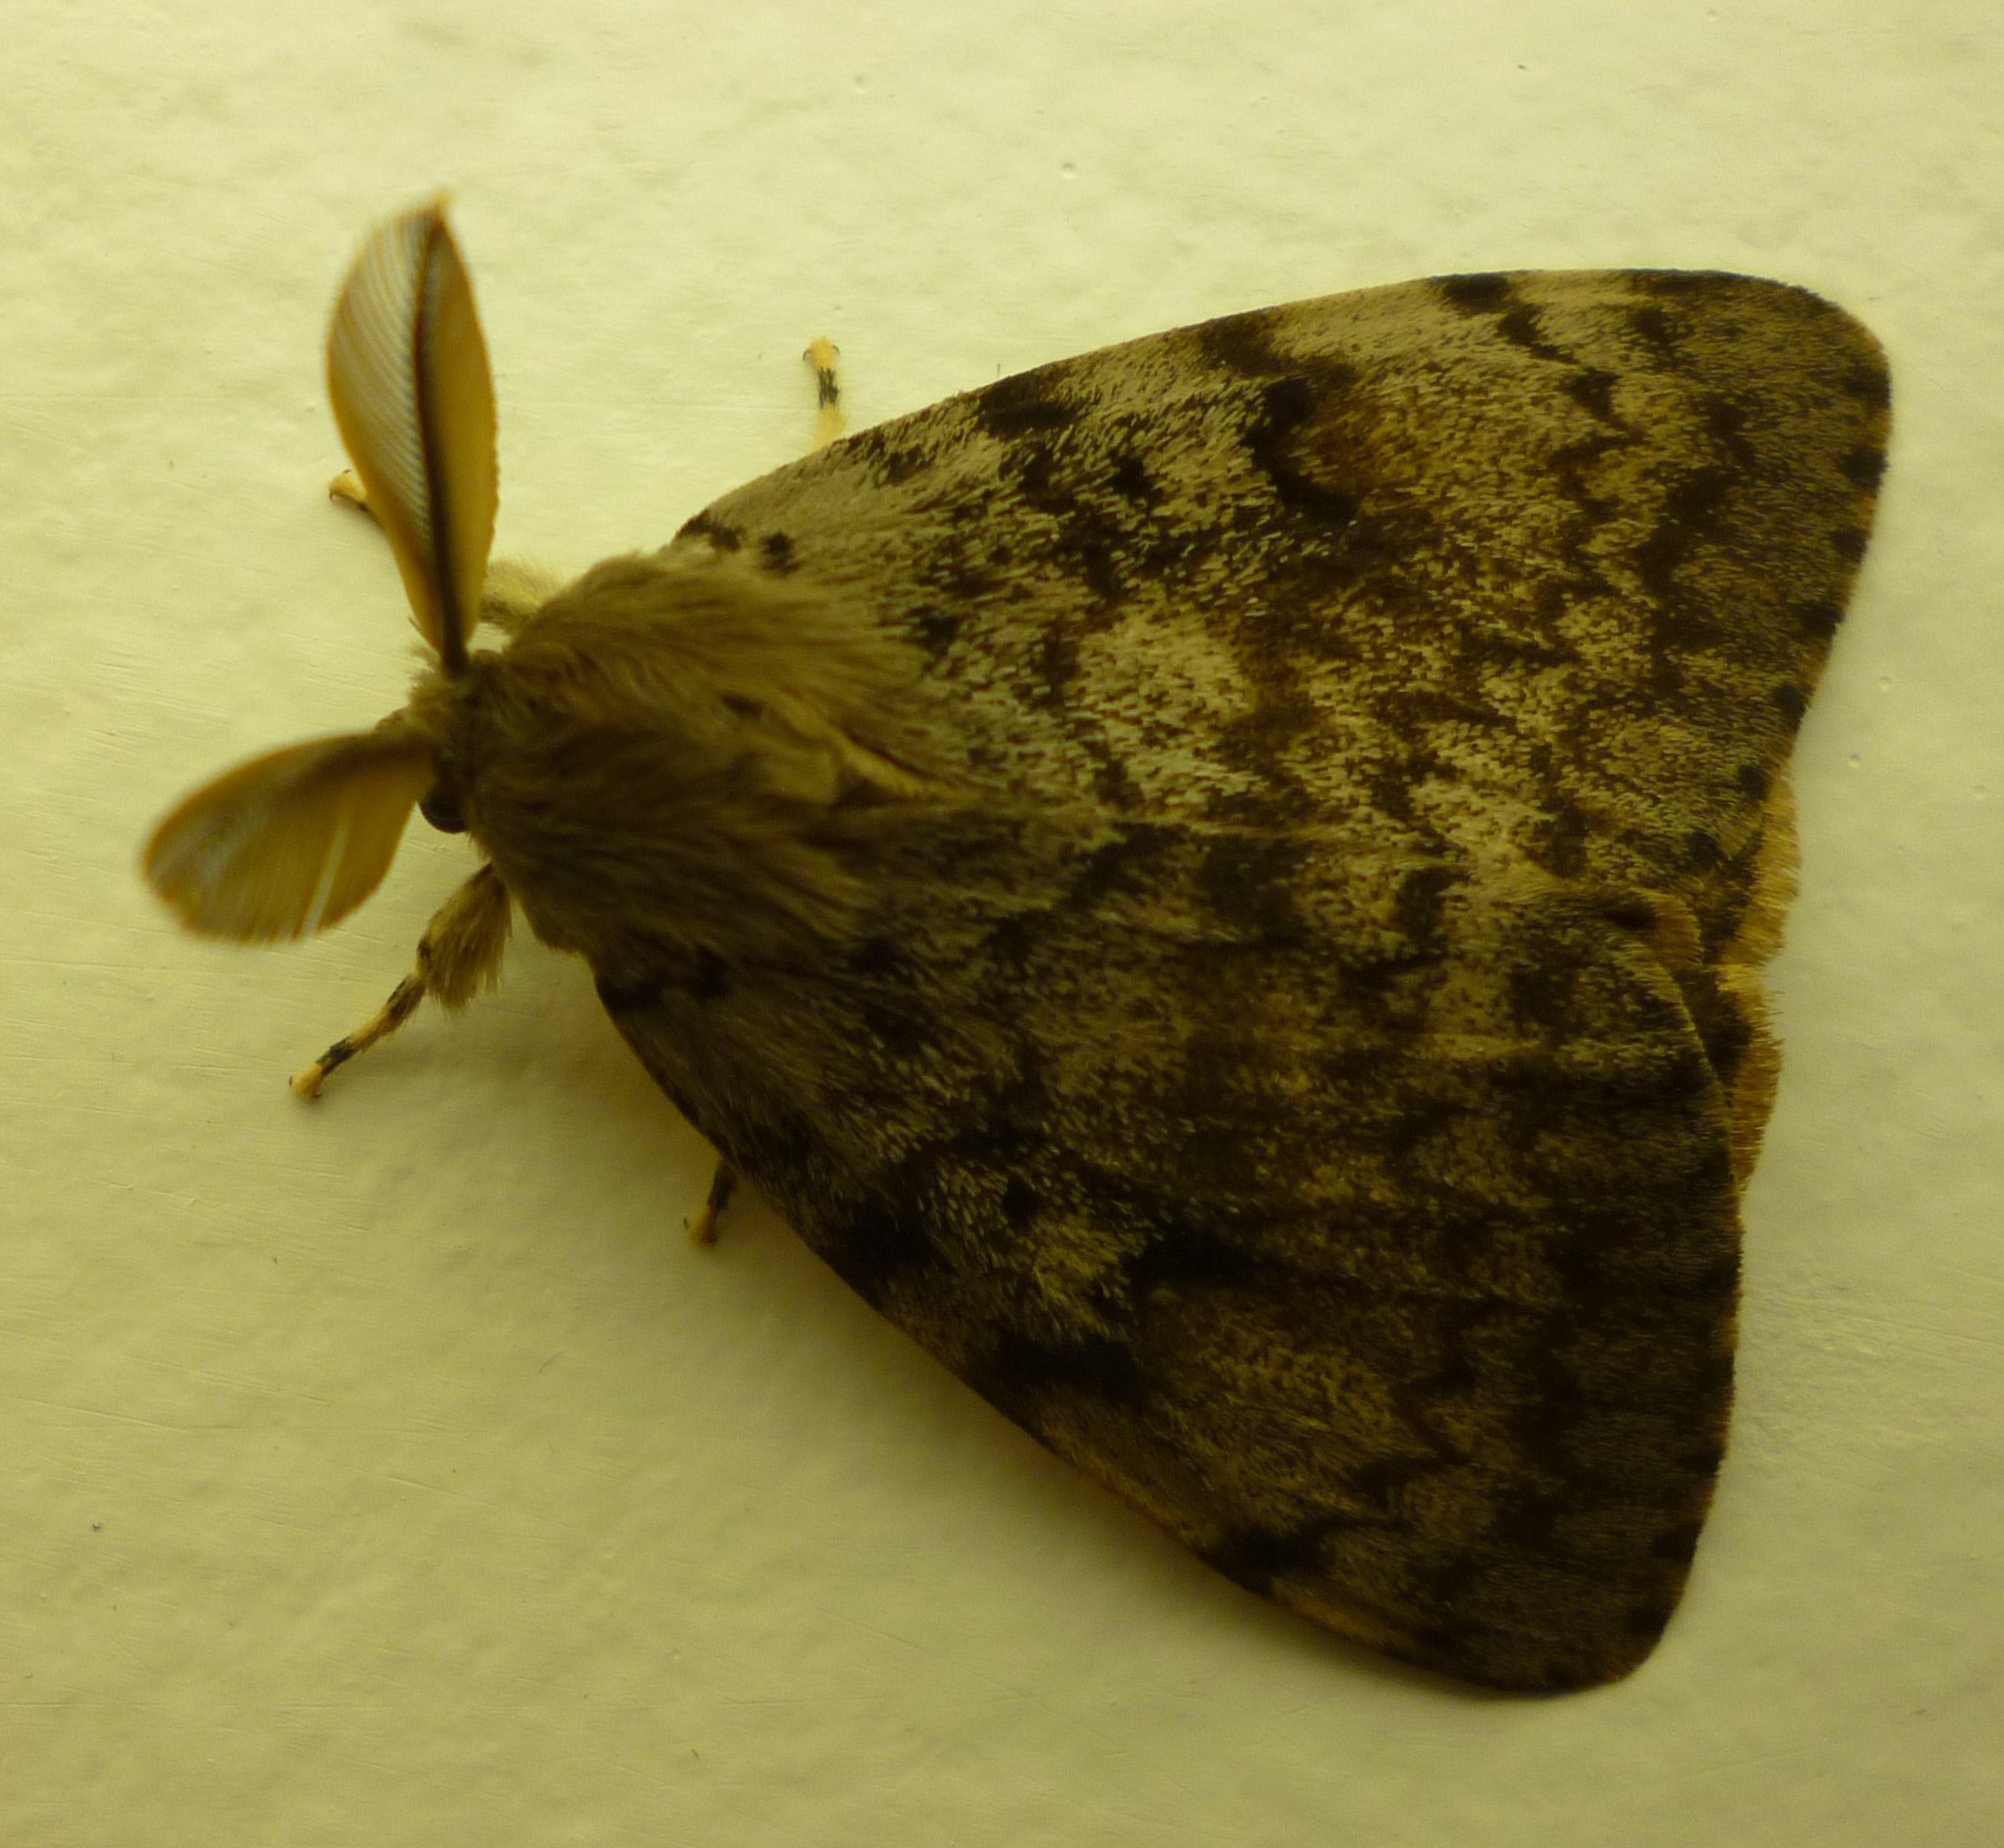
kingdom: Animalia
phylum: Arthropoda
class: Insecta
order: Lepidoptera
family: Erebidae
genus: Lymantria
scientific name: Lymantria dispar
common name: Gypsy moth
